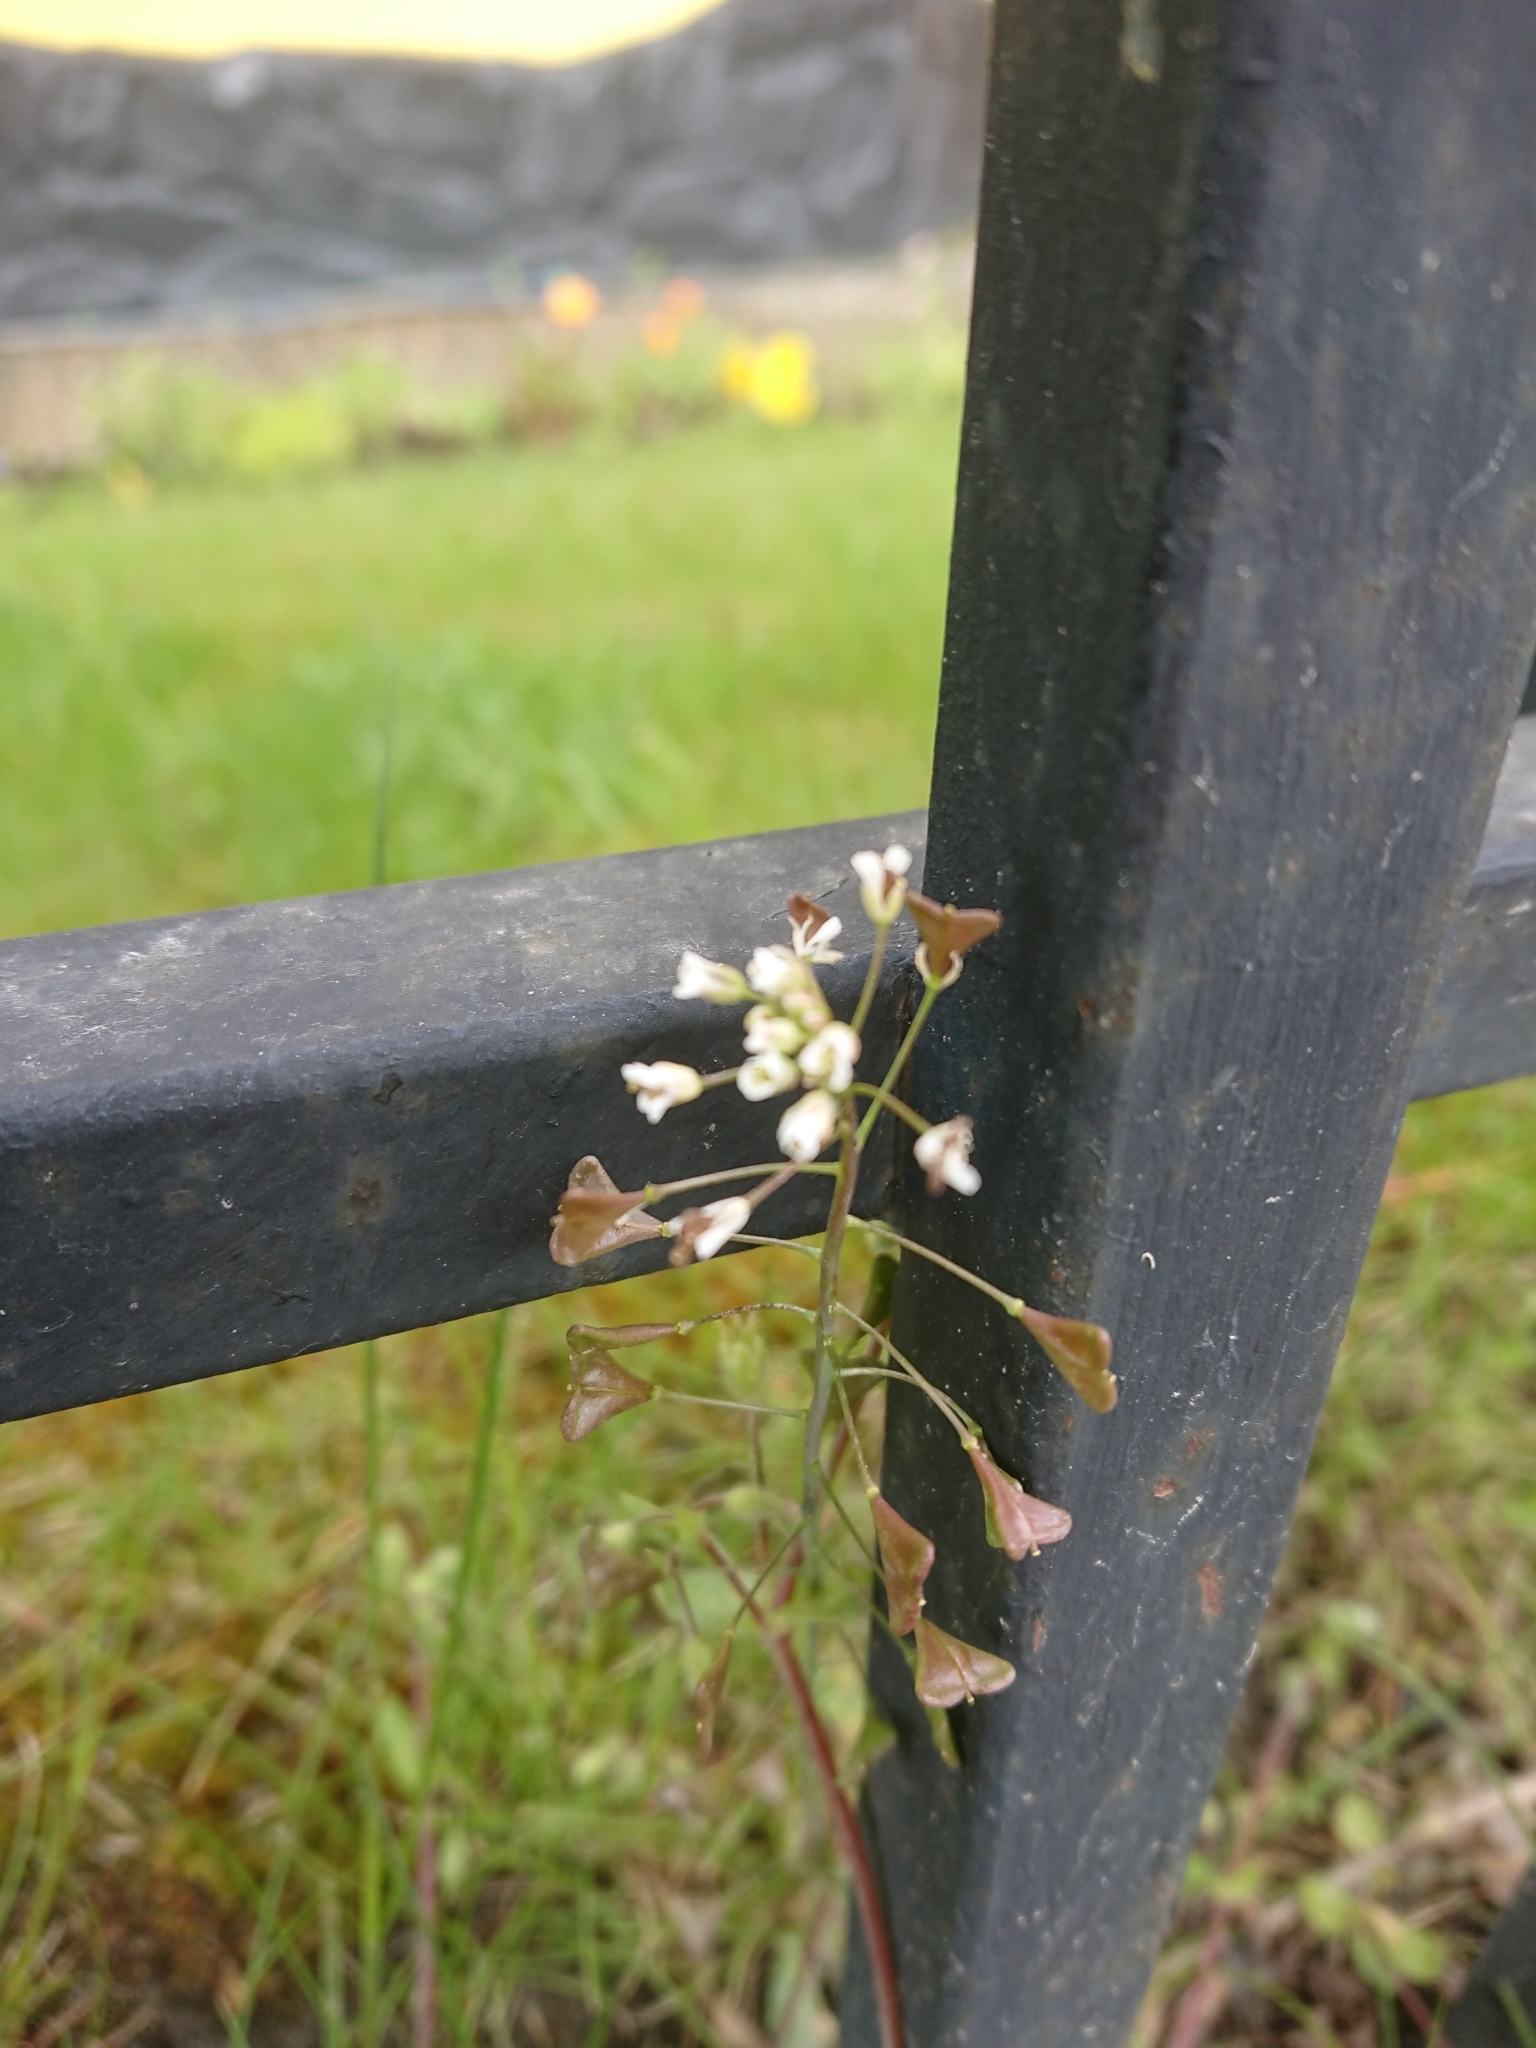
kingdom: Plantae
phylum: Tracheophyta
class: Magnoliopsida
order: Brassicales
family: Brassicaceae
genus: Capsella
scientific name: Capsella bursa-pastoris
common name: Shepherd's purse
